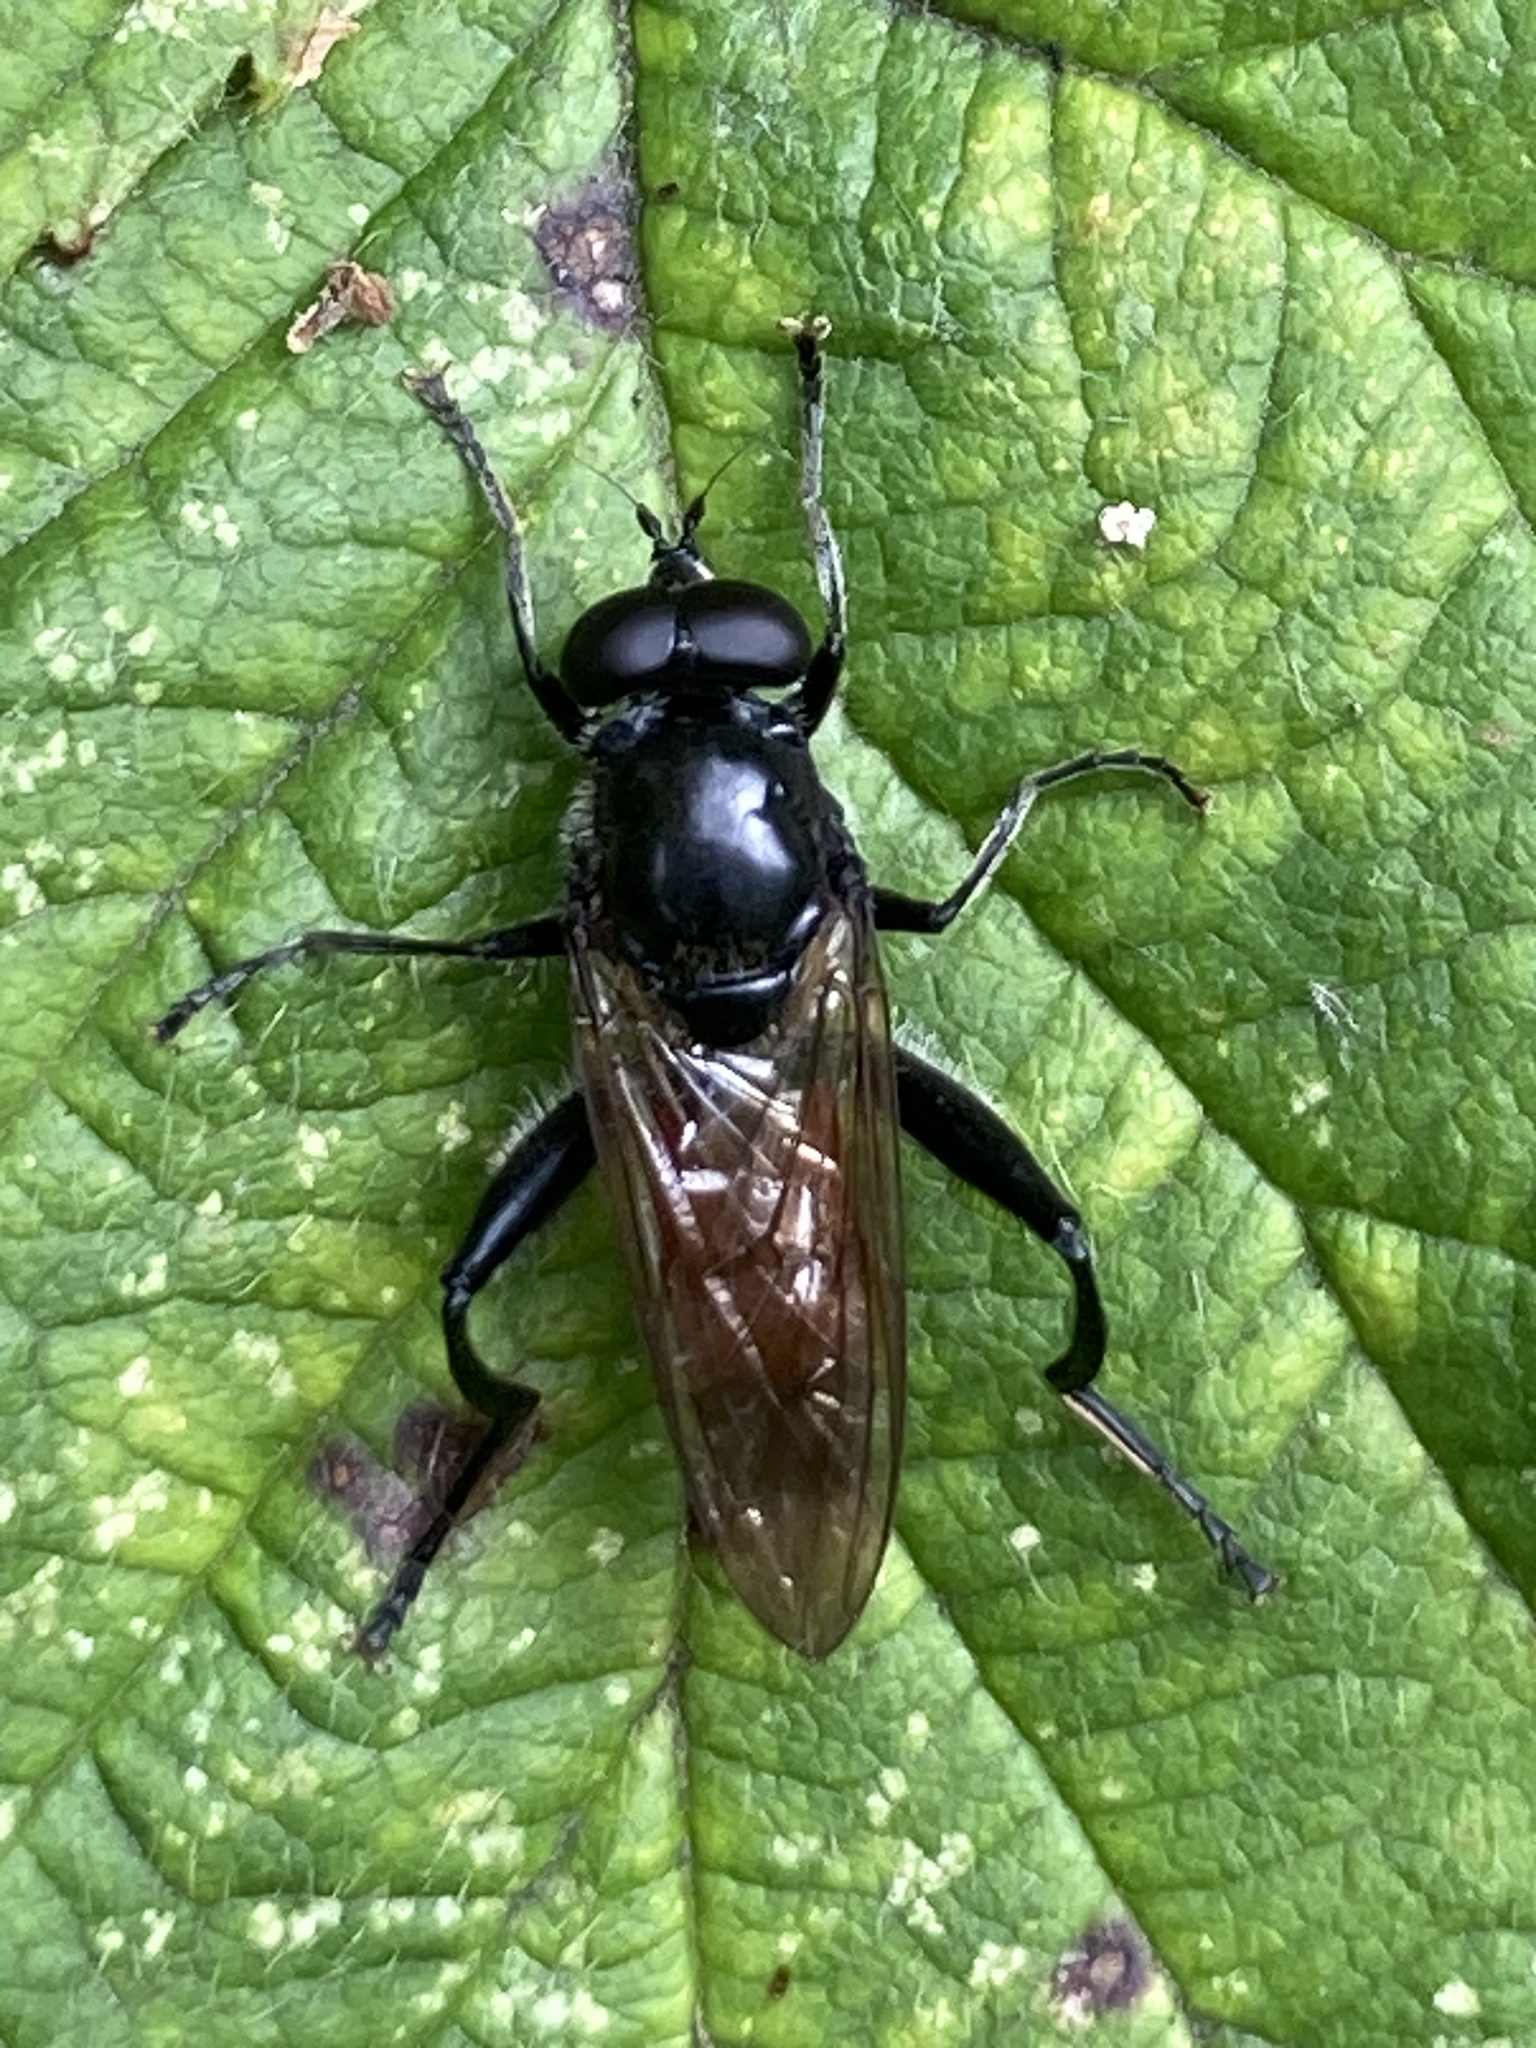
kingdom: Animalia
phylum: Arthropoda
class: Insecta
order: Diptera
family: Syrphidae
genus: Brachypalpoides
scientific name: Brachypalpoides lenta
